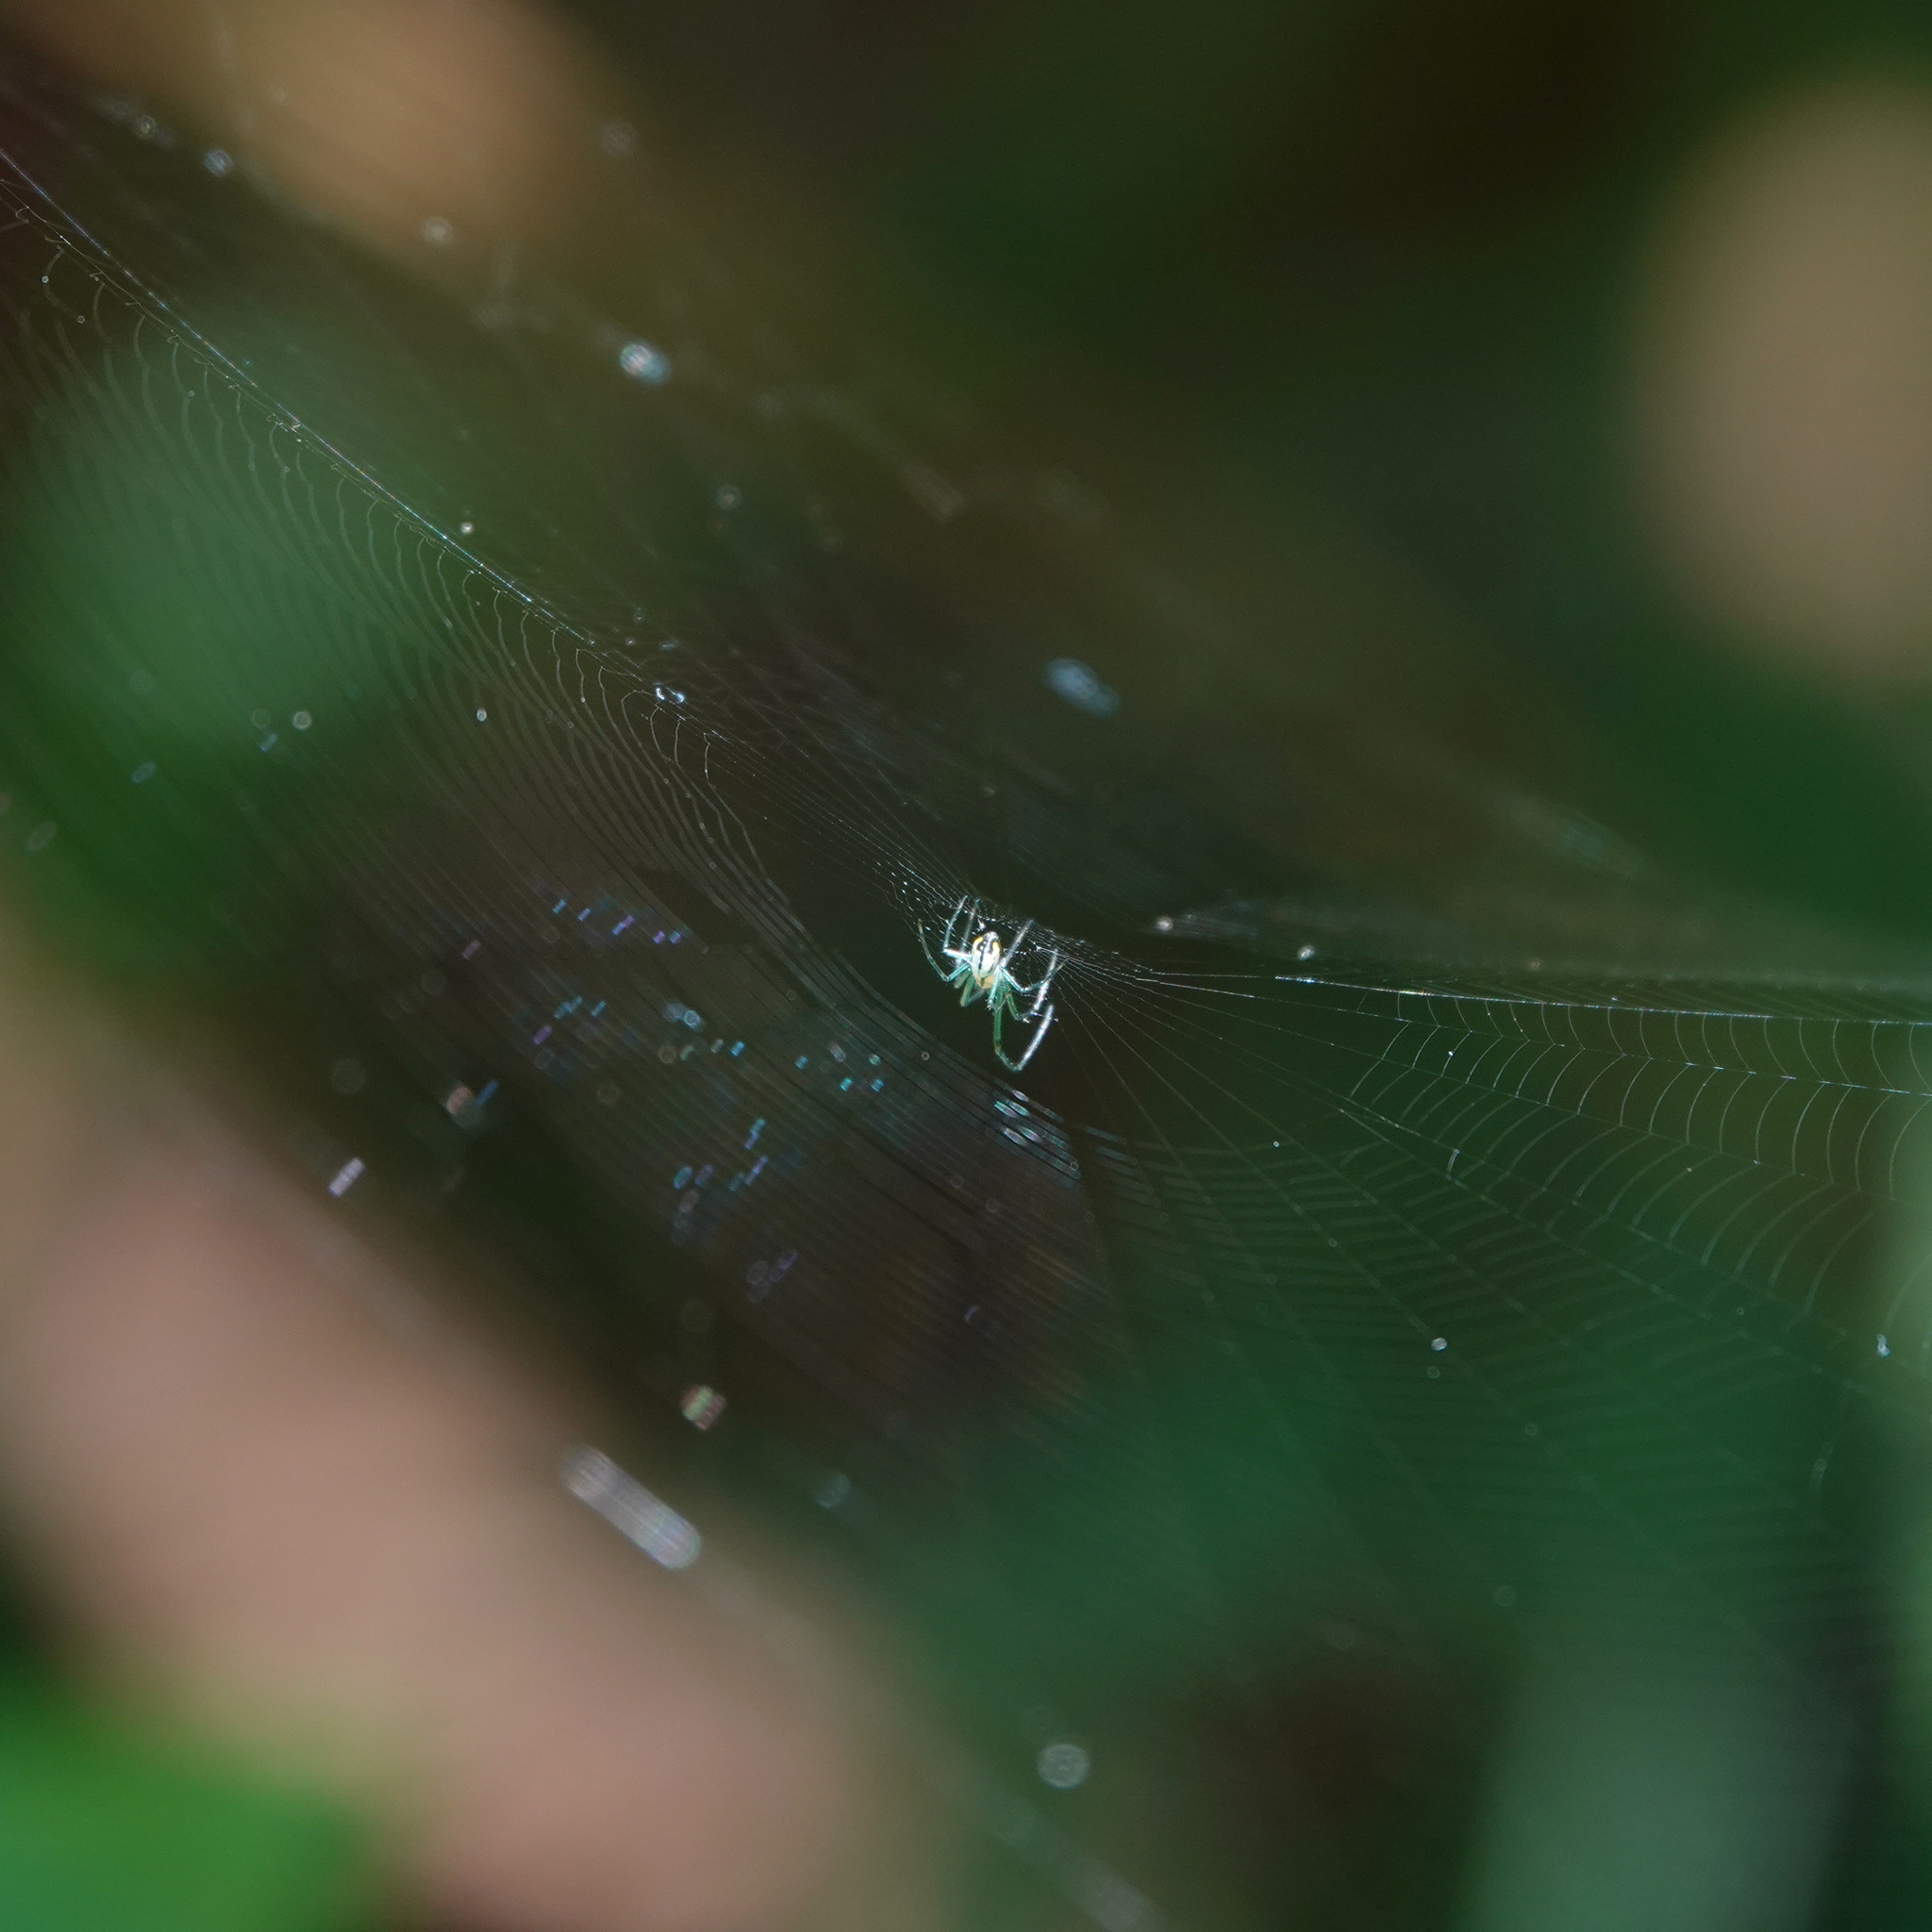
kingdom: Animalia
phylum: Arthropoda
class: Arachnida
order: Araneae
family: Tetragnathidae
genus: Leucauge
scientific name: Leucauge venusta
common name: Longjawed orb weavers
